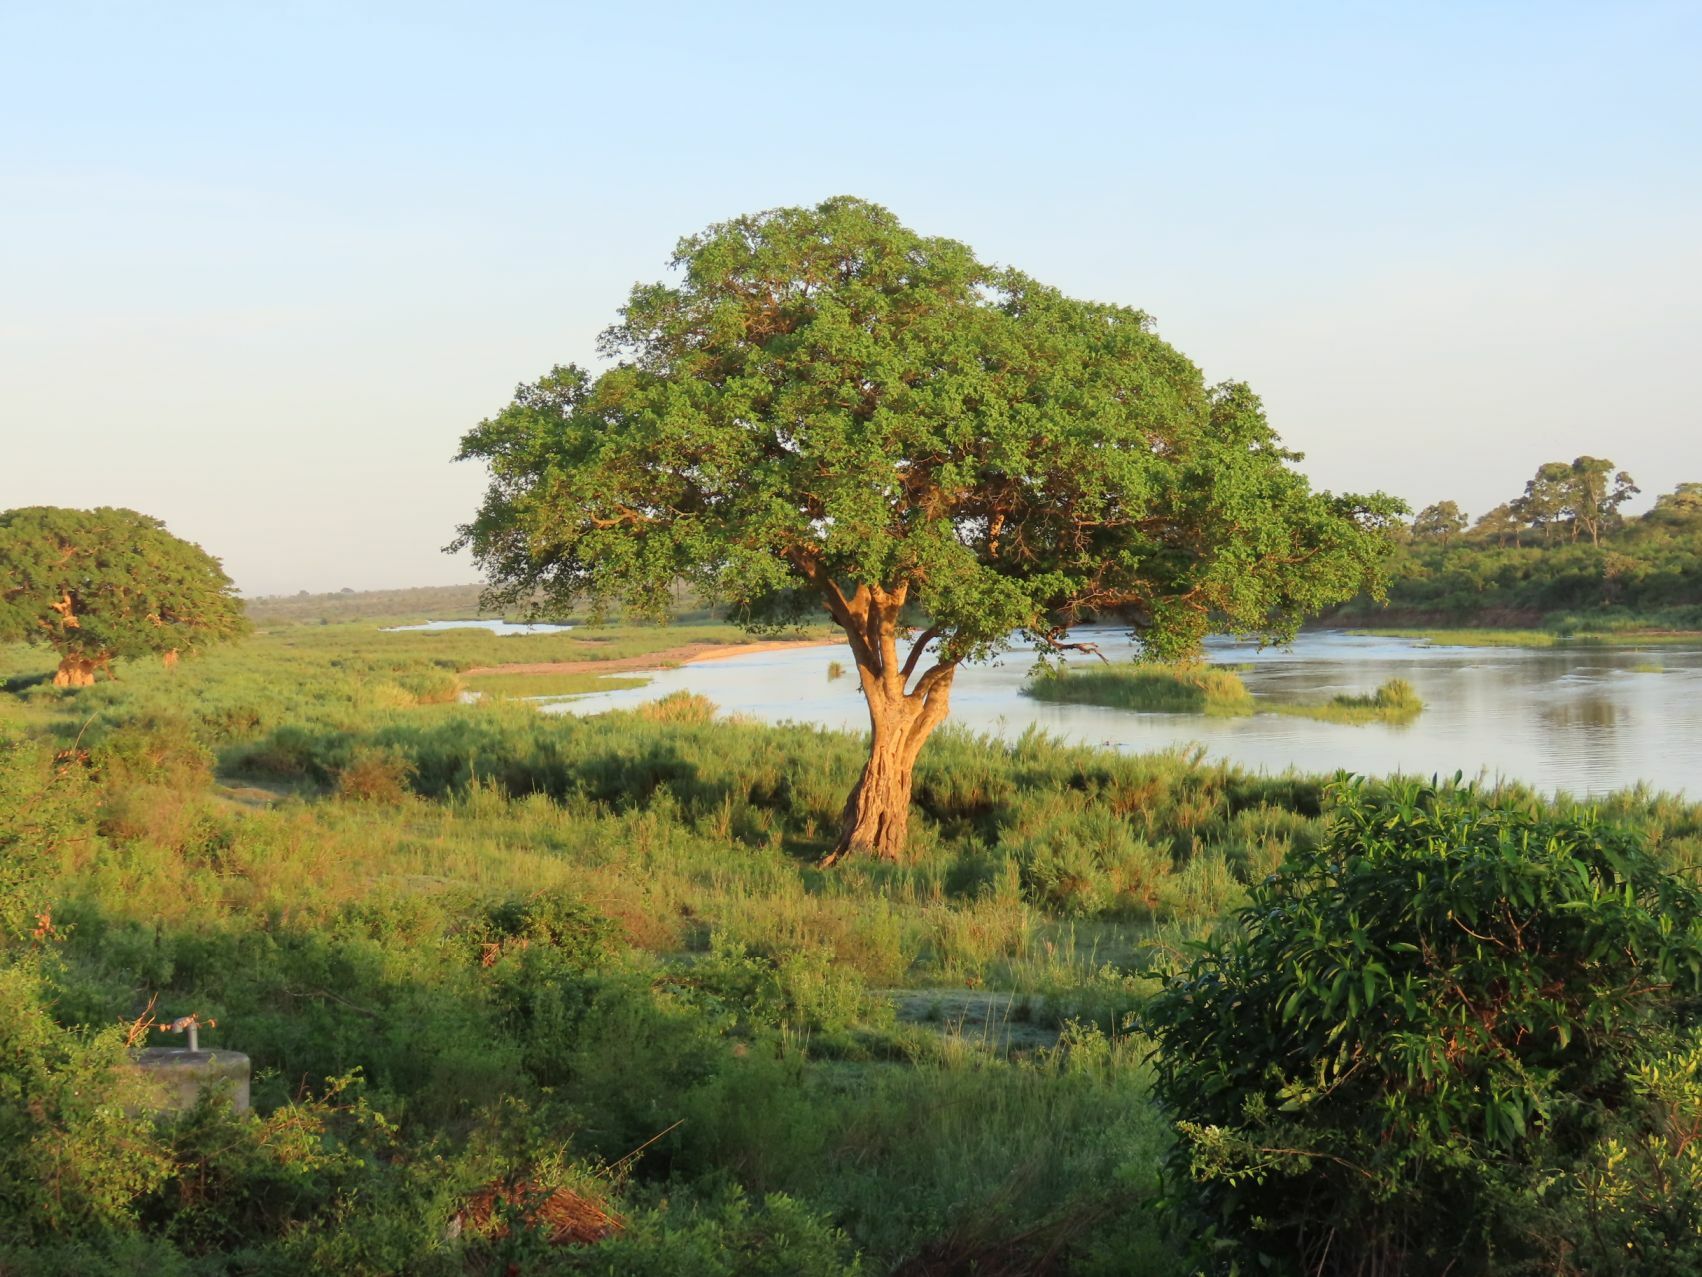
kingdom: Plantae
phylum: Tracheophyta
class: Magnoliopsida
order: Rosales
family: Moraceae
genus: Ficus
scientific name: Ficus sycomorus
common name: Sycomore
